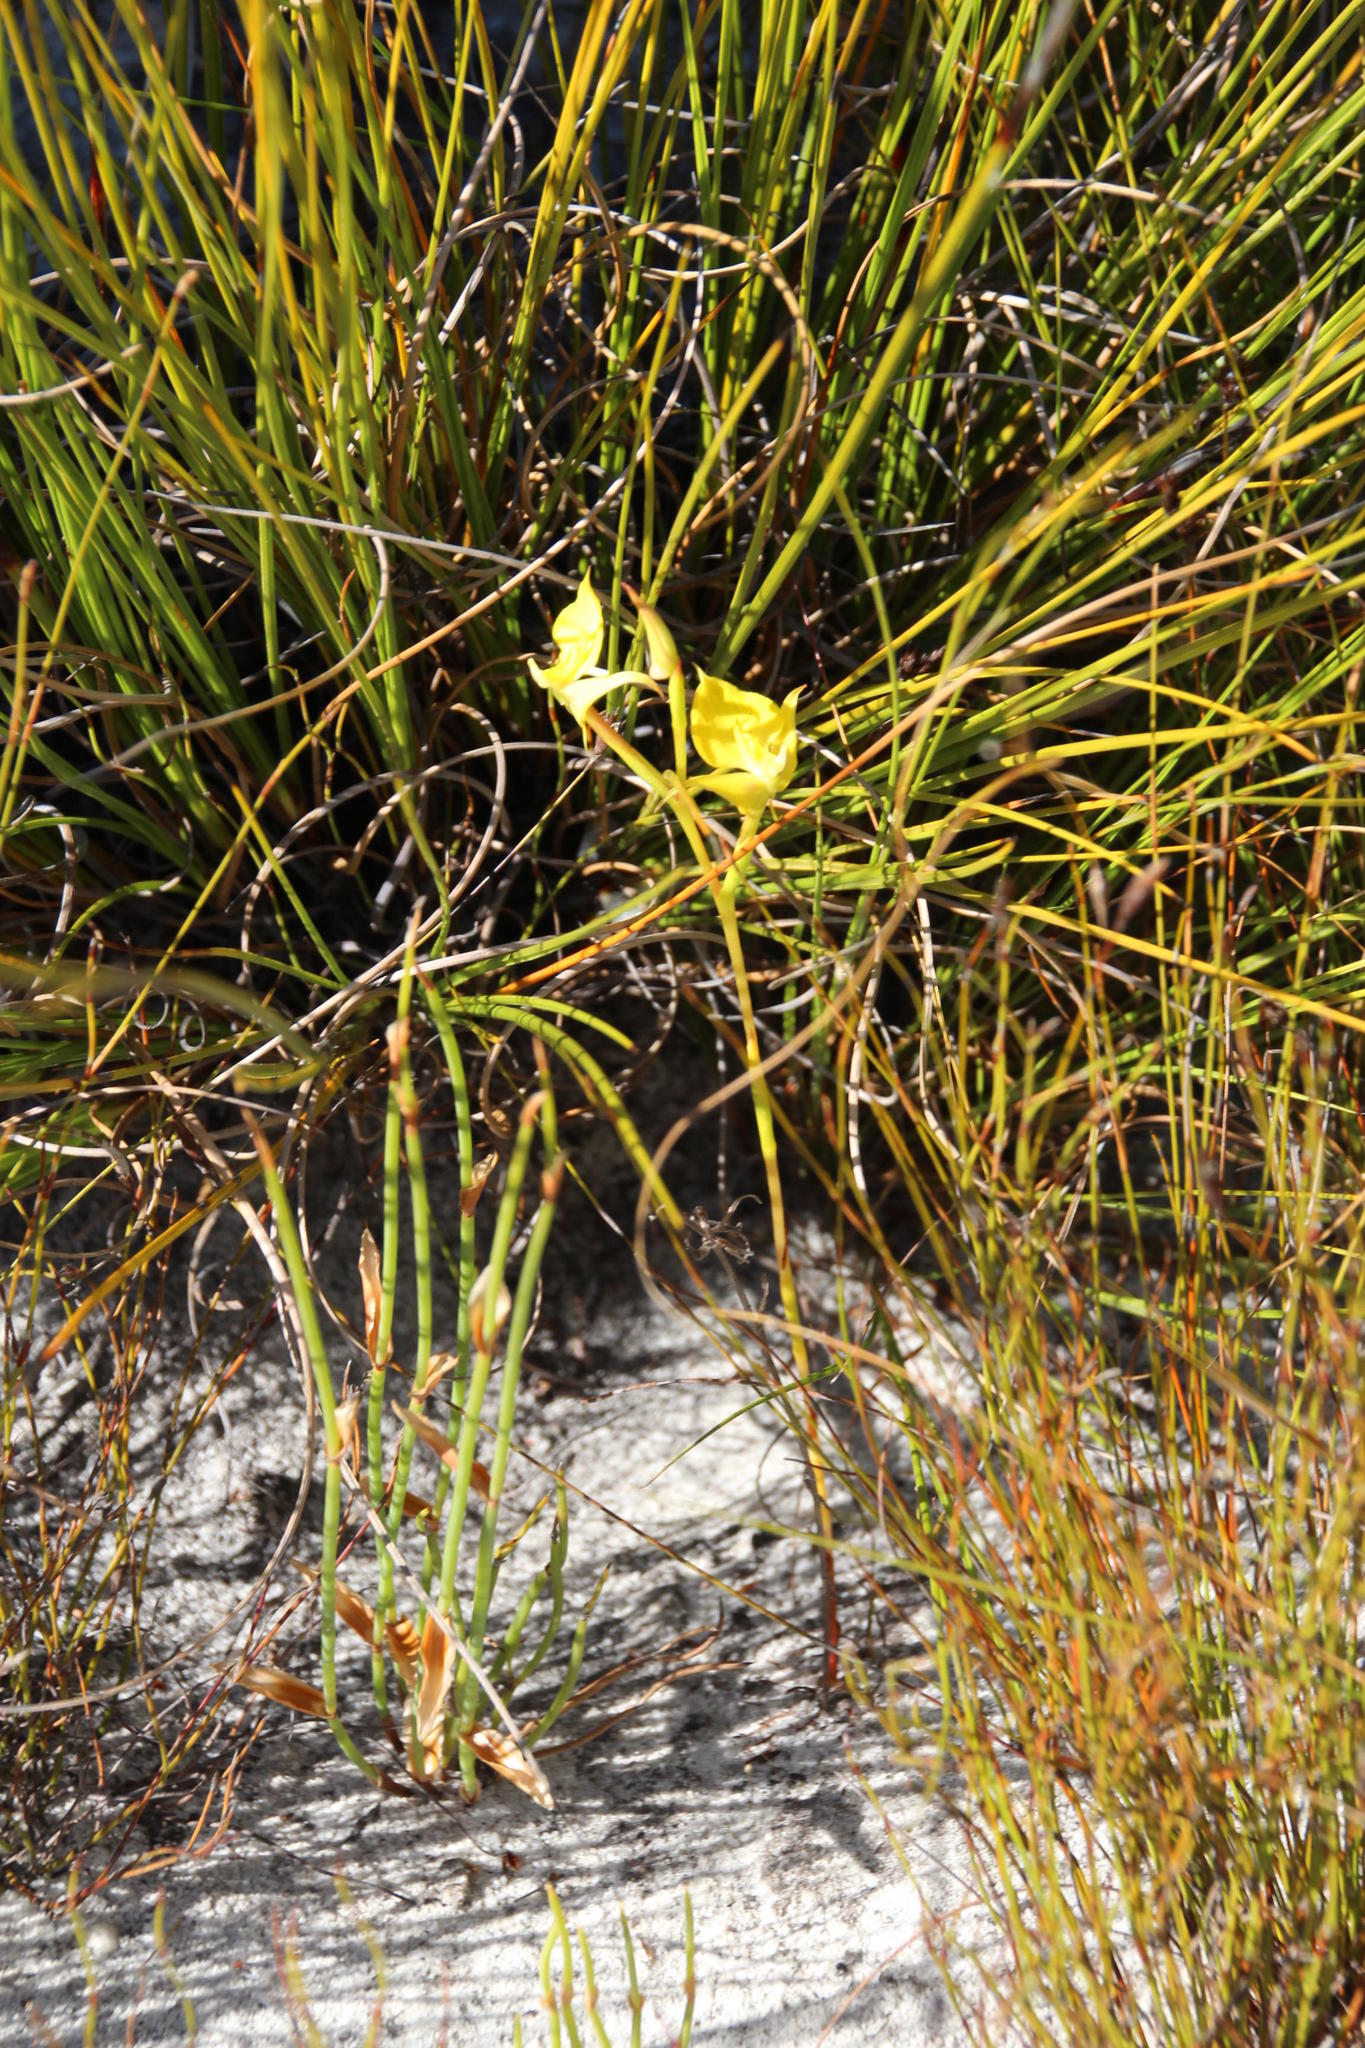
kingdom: Plantae
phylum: Tracheophyta
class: Liliopsida
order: Asparagales
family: Orchidaceae
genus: Disa
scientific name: Disa tenuifolia
